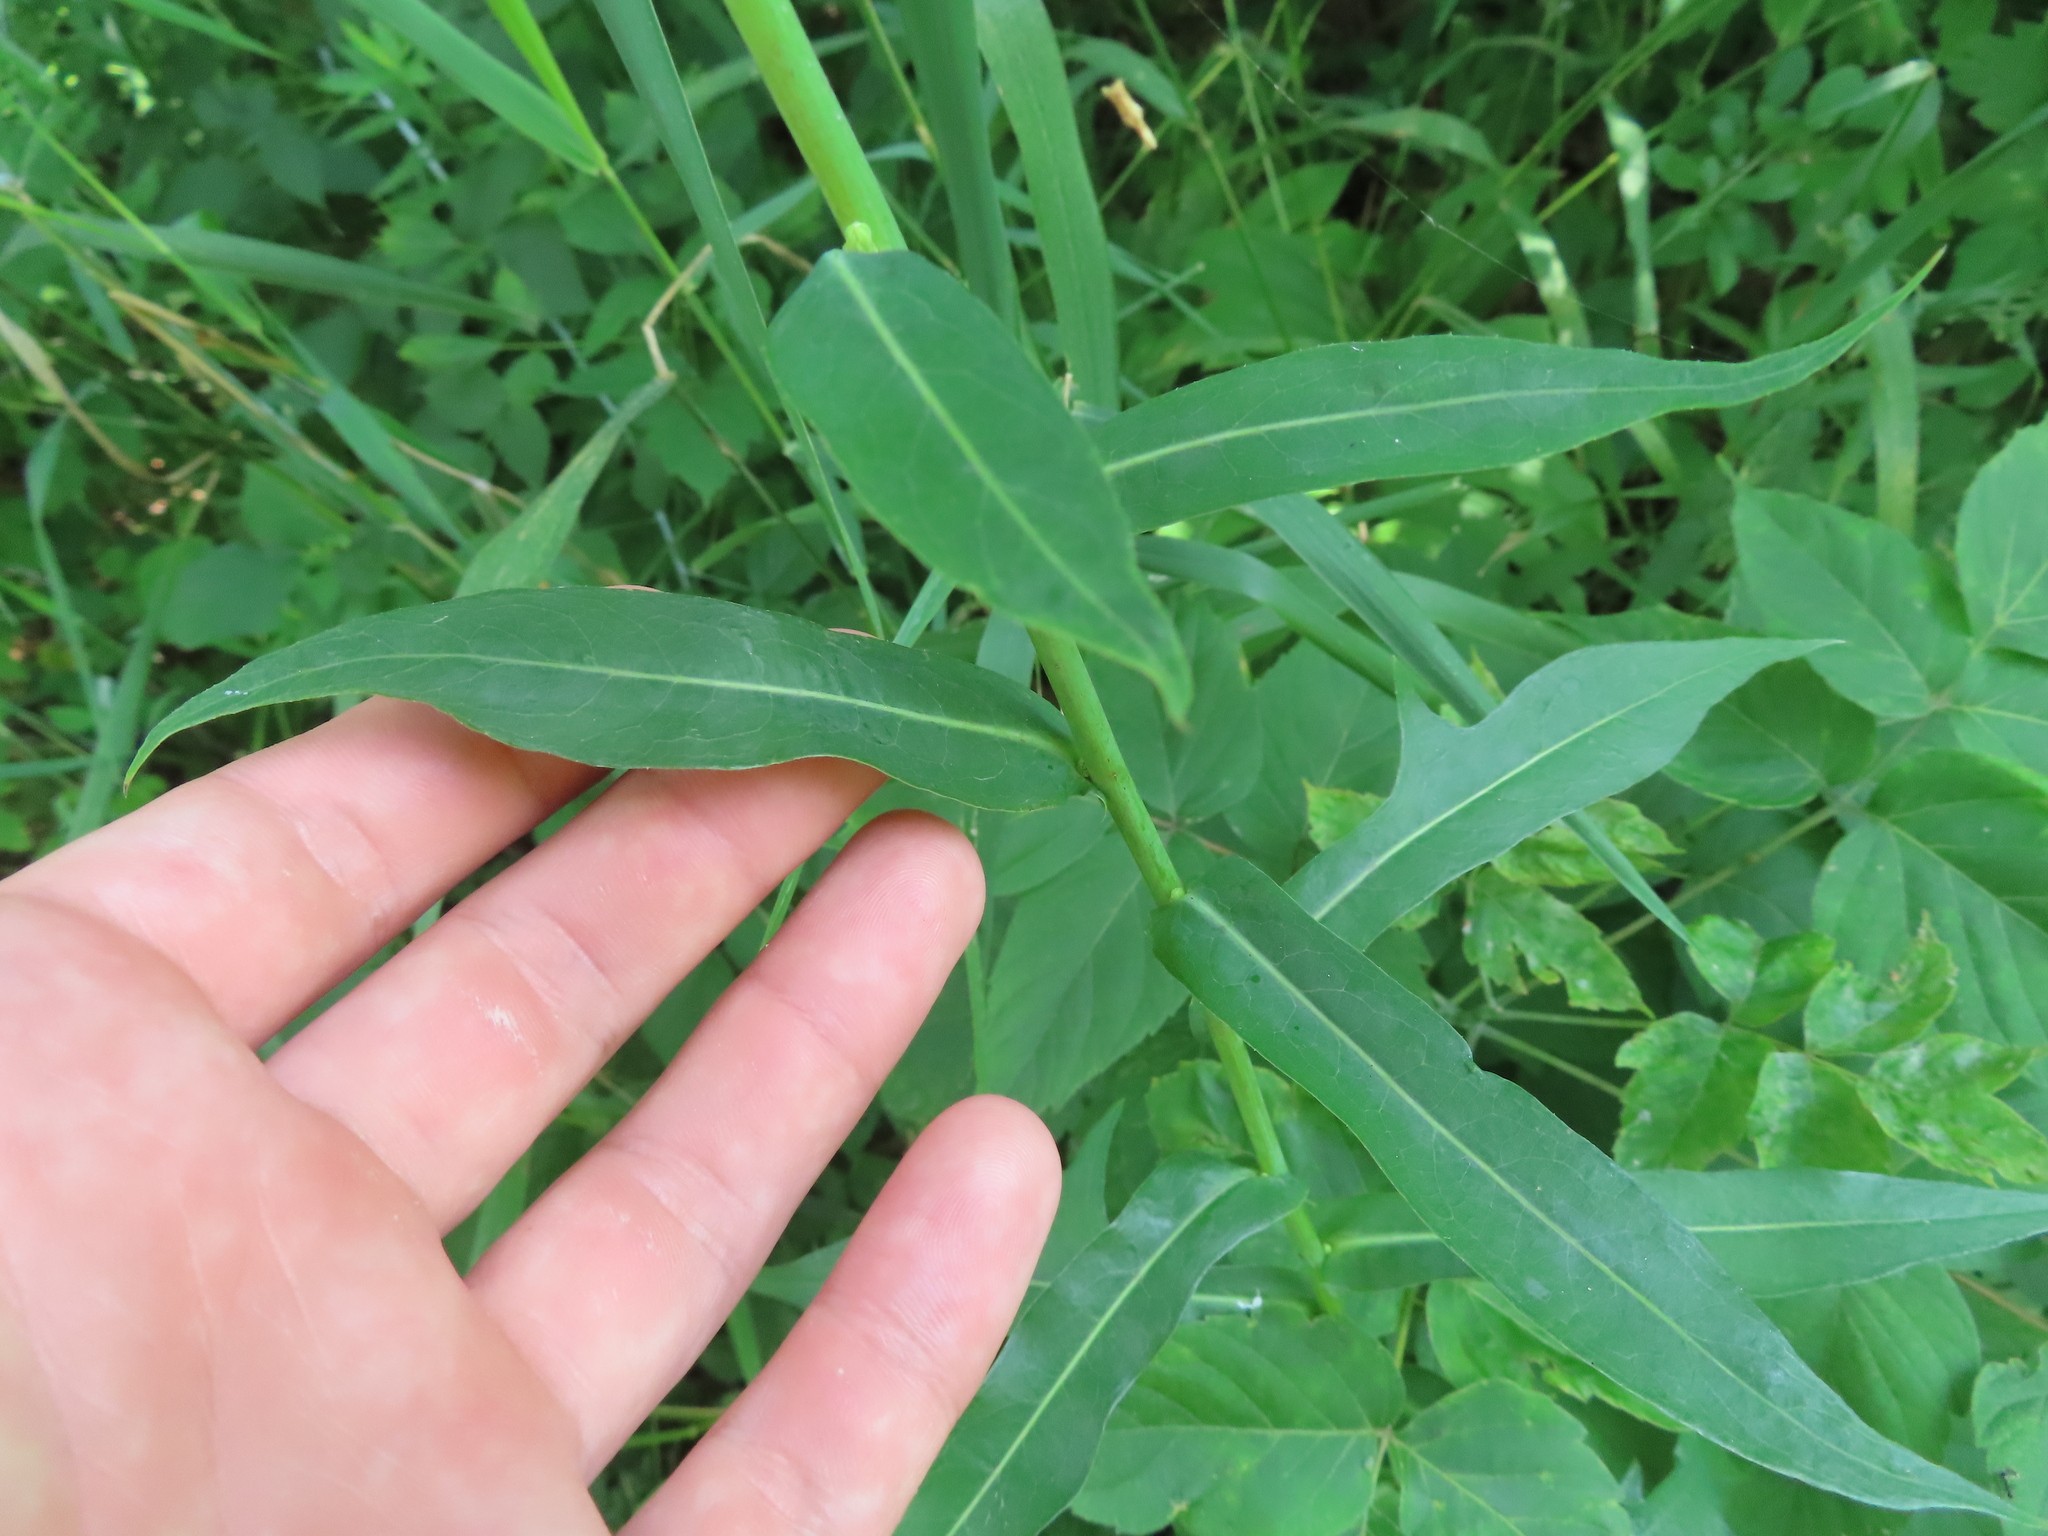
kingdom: Plantae
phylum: Tracheophyta
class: Magnoliopsida
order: Asterales
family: Asteraceae
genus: Lactuca
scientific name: Lactuca canadensis
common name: Canada lettuce
